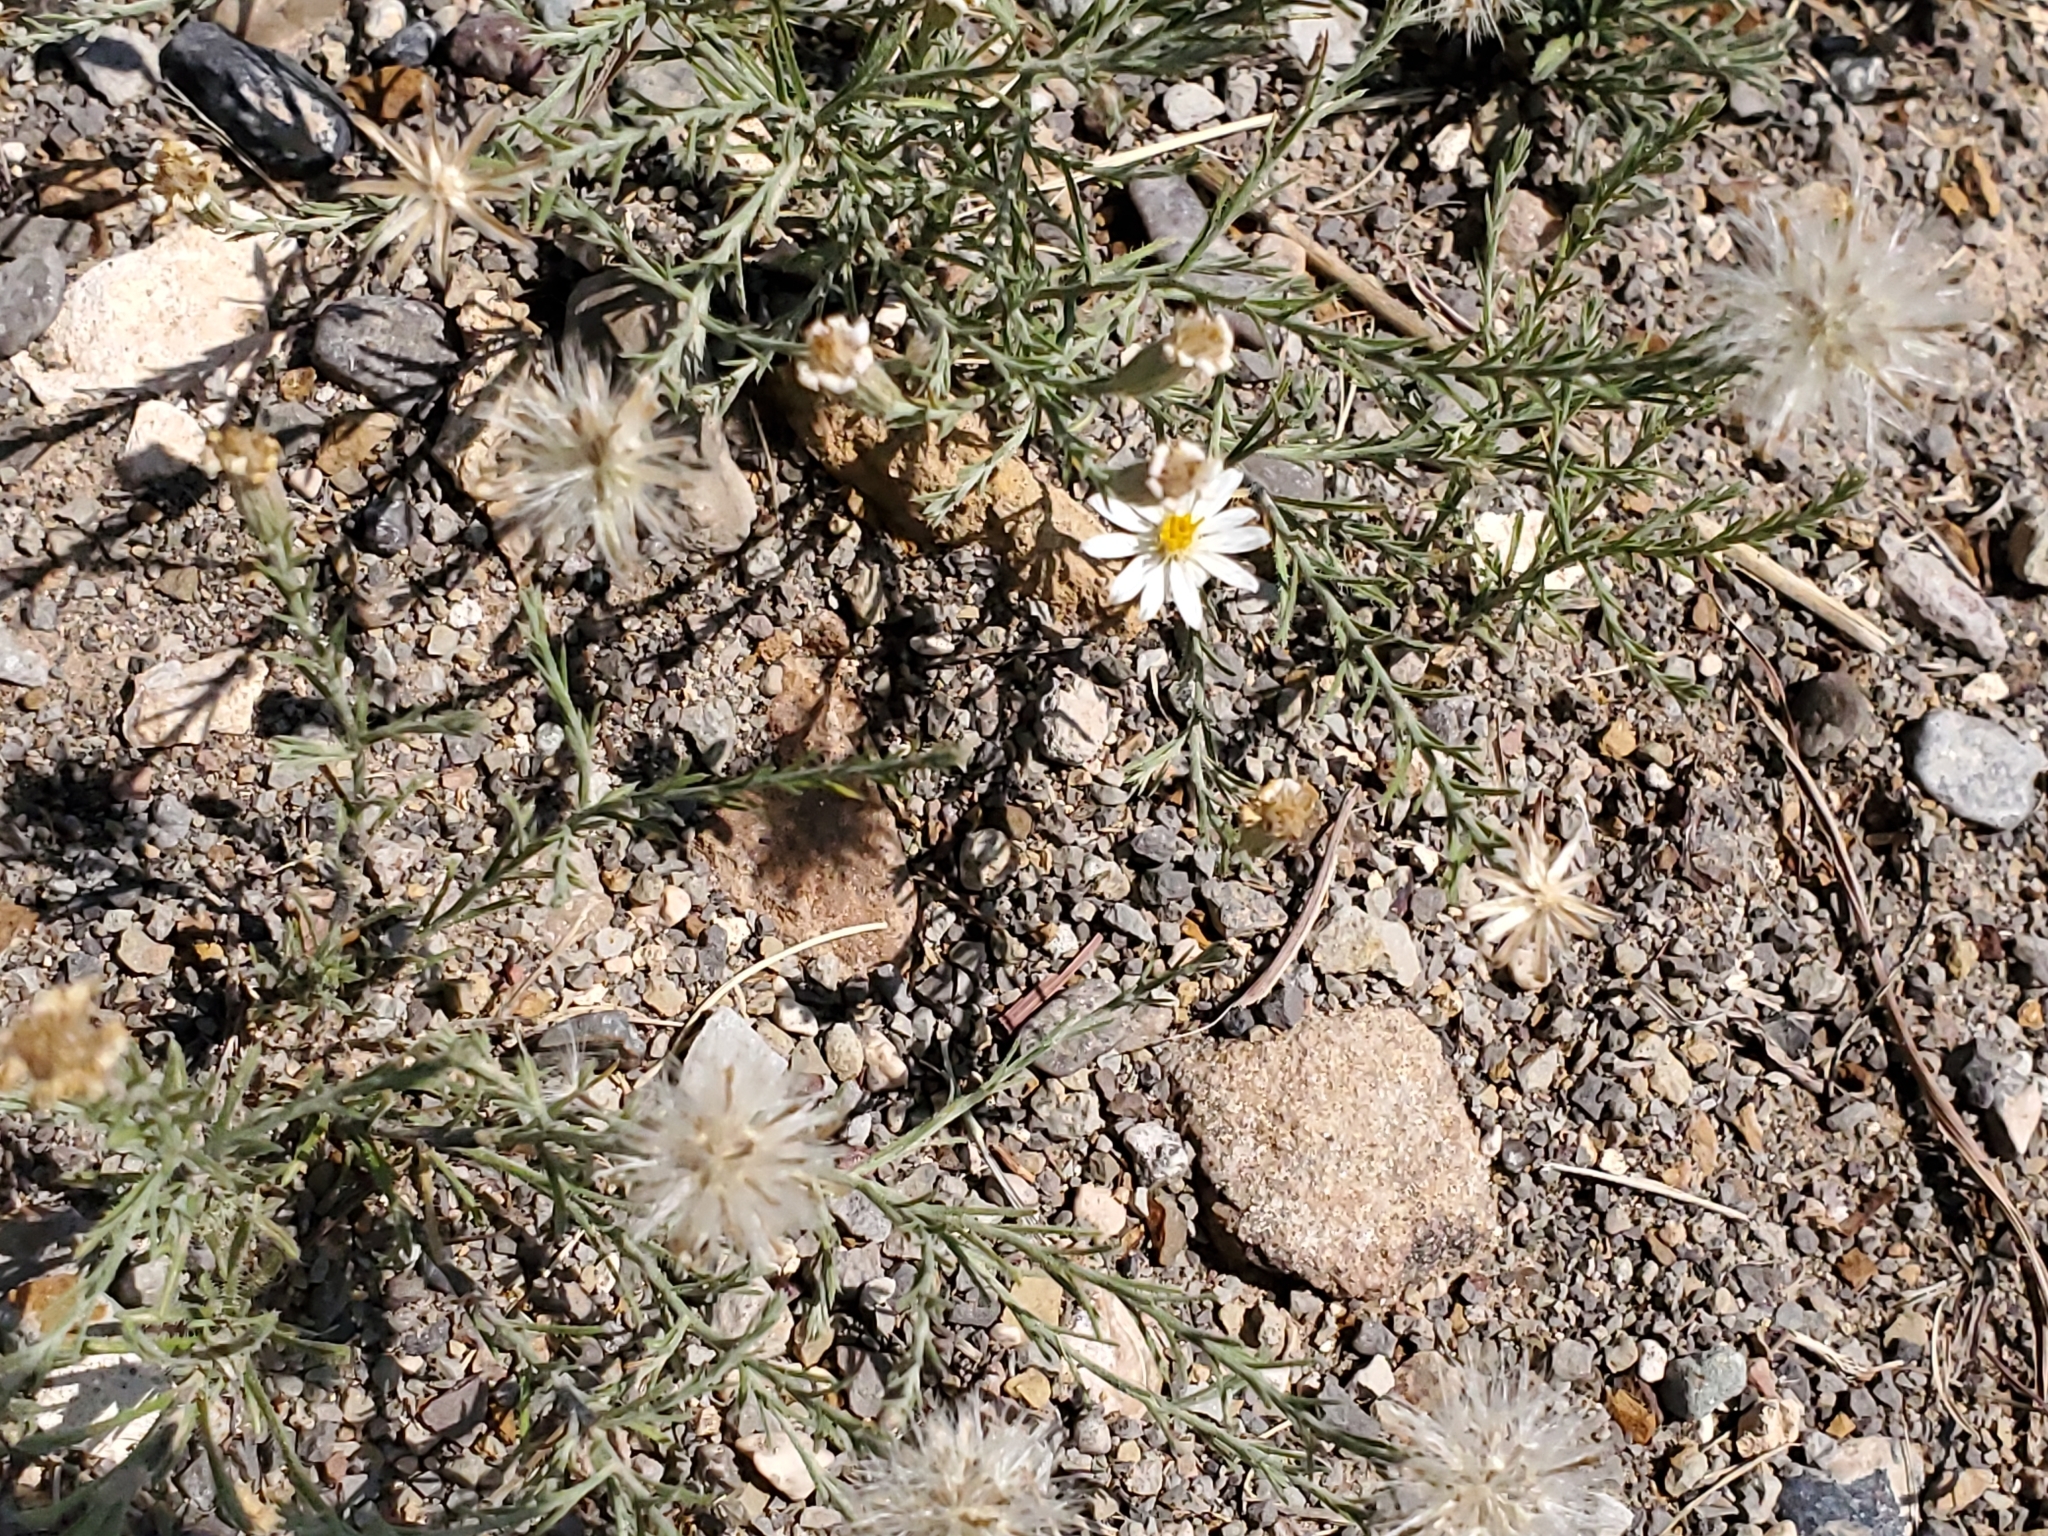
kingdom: Plantae
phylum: Tracheophyta
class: Magnoliopsida
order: Asterales
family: Asteraceae
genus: Chaetopappa
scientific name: Chaetopappa ericoides
